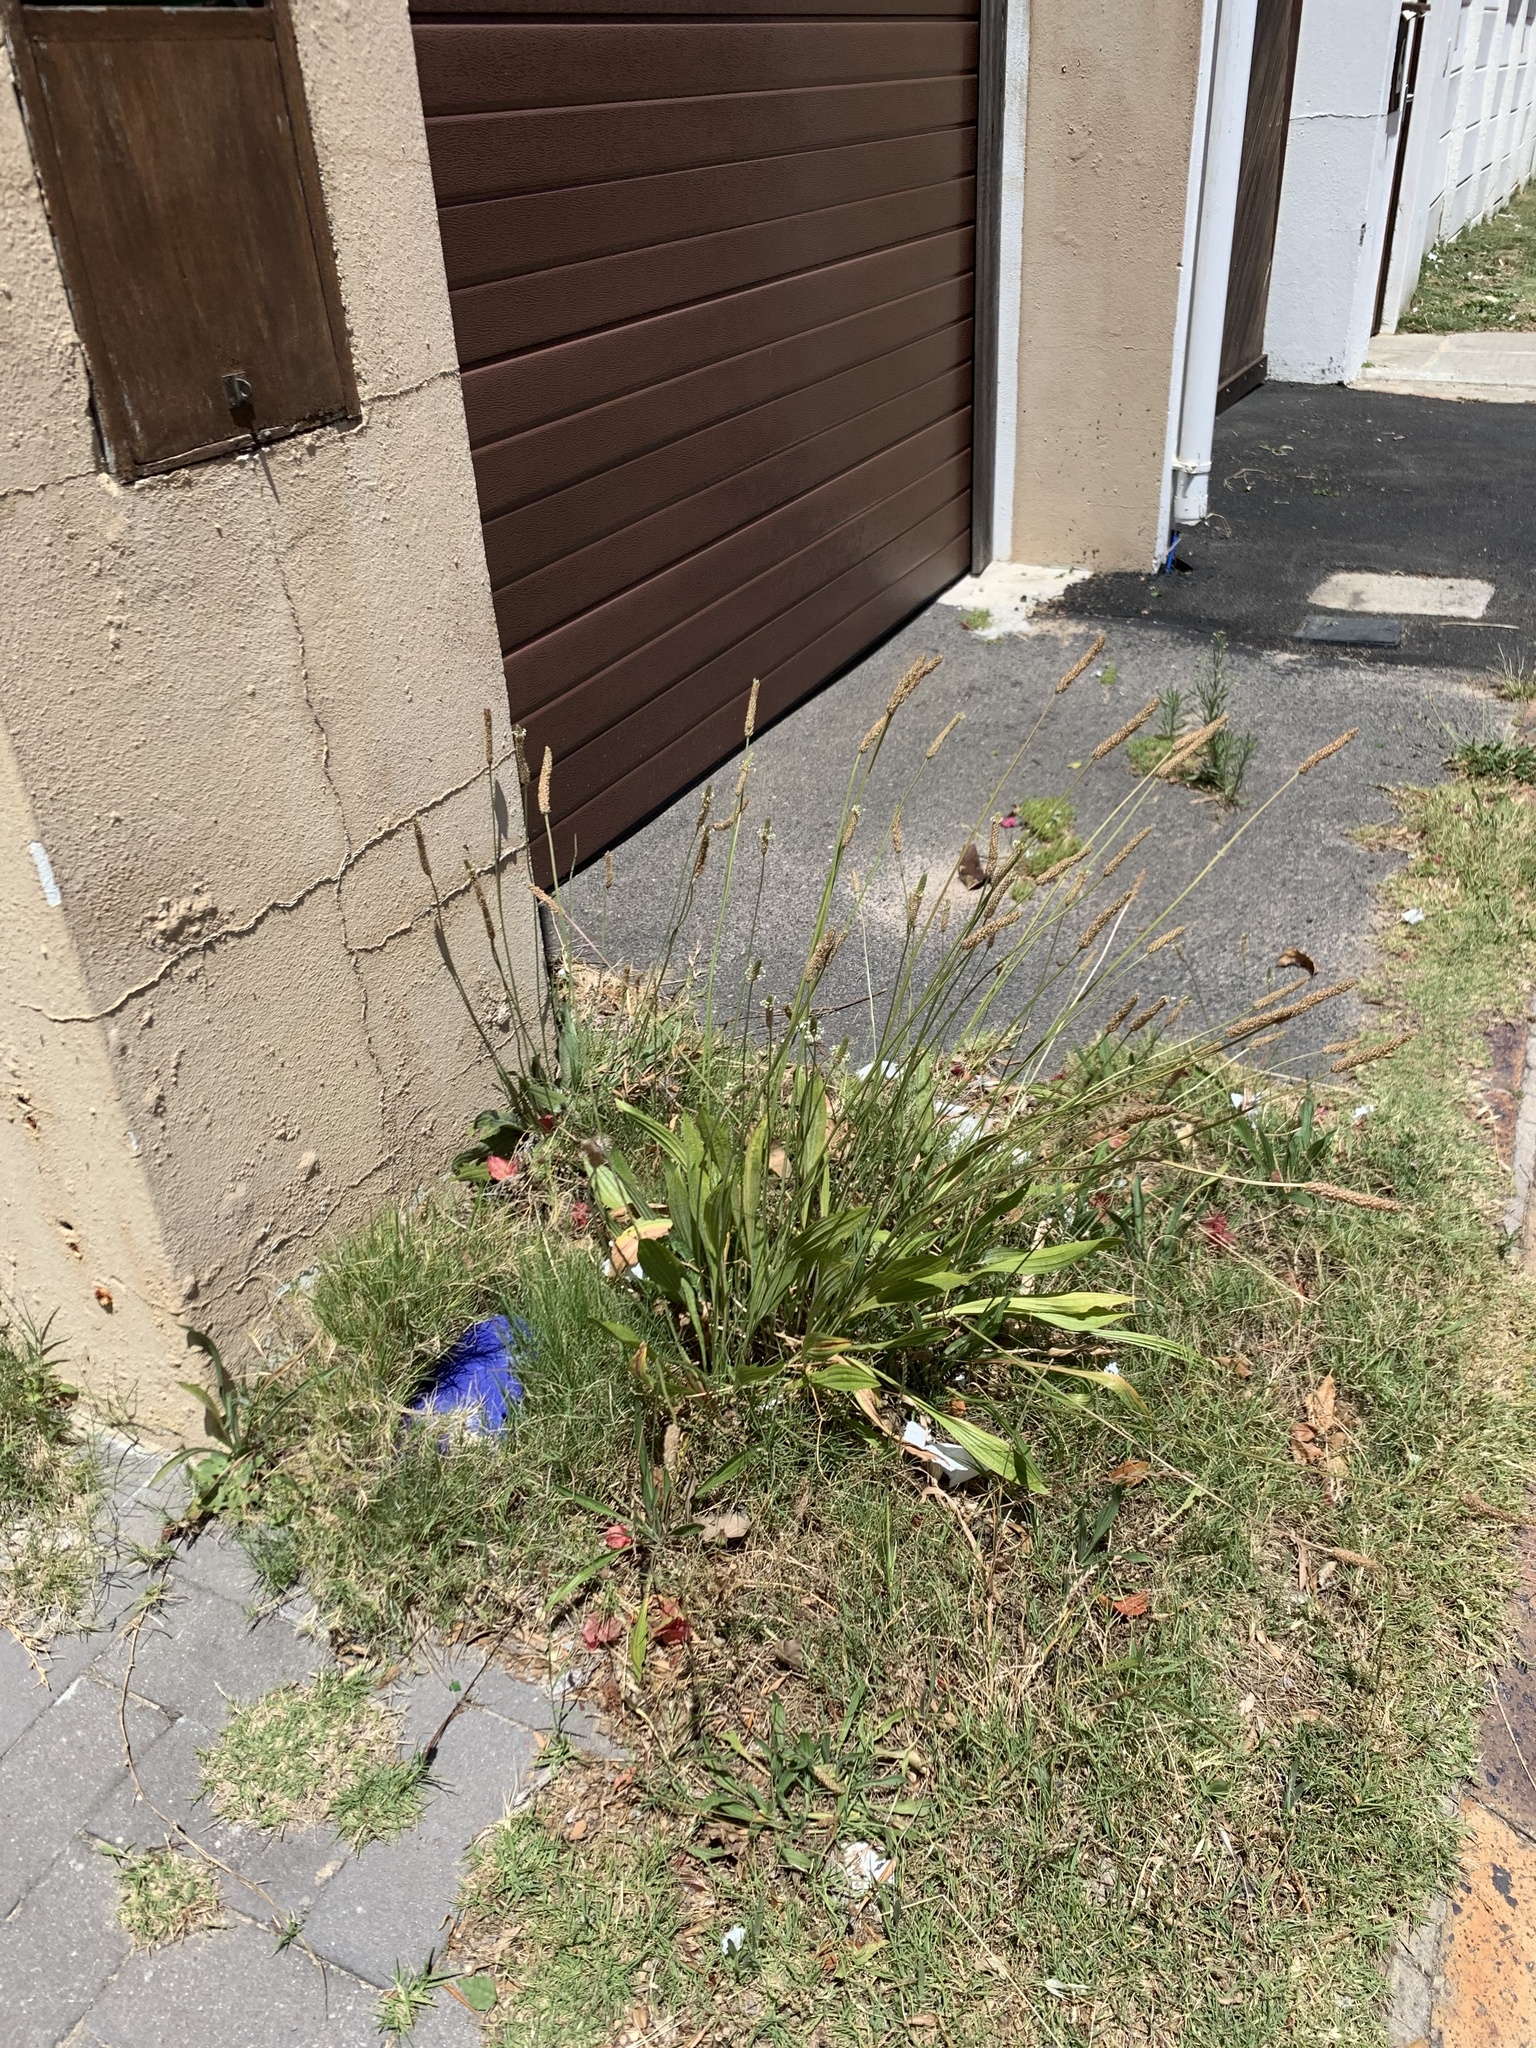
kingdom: Plantae
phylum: Tracheophyta
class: Magnoliopsida
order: Lamiales
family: Plantaginaceae
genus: Plantago
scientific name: Plantago lanceolata
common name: Ribwort plantain
